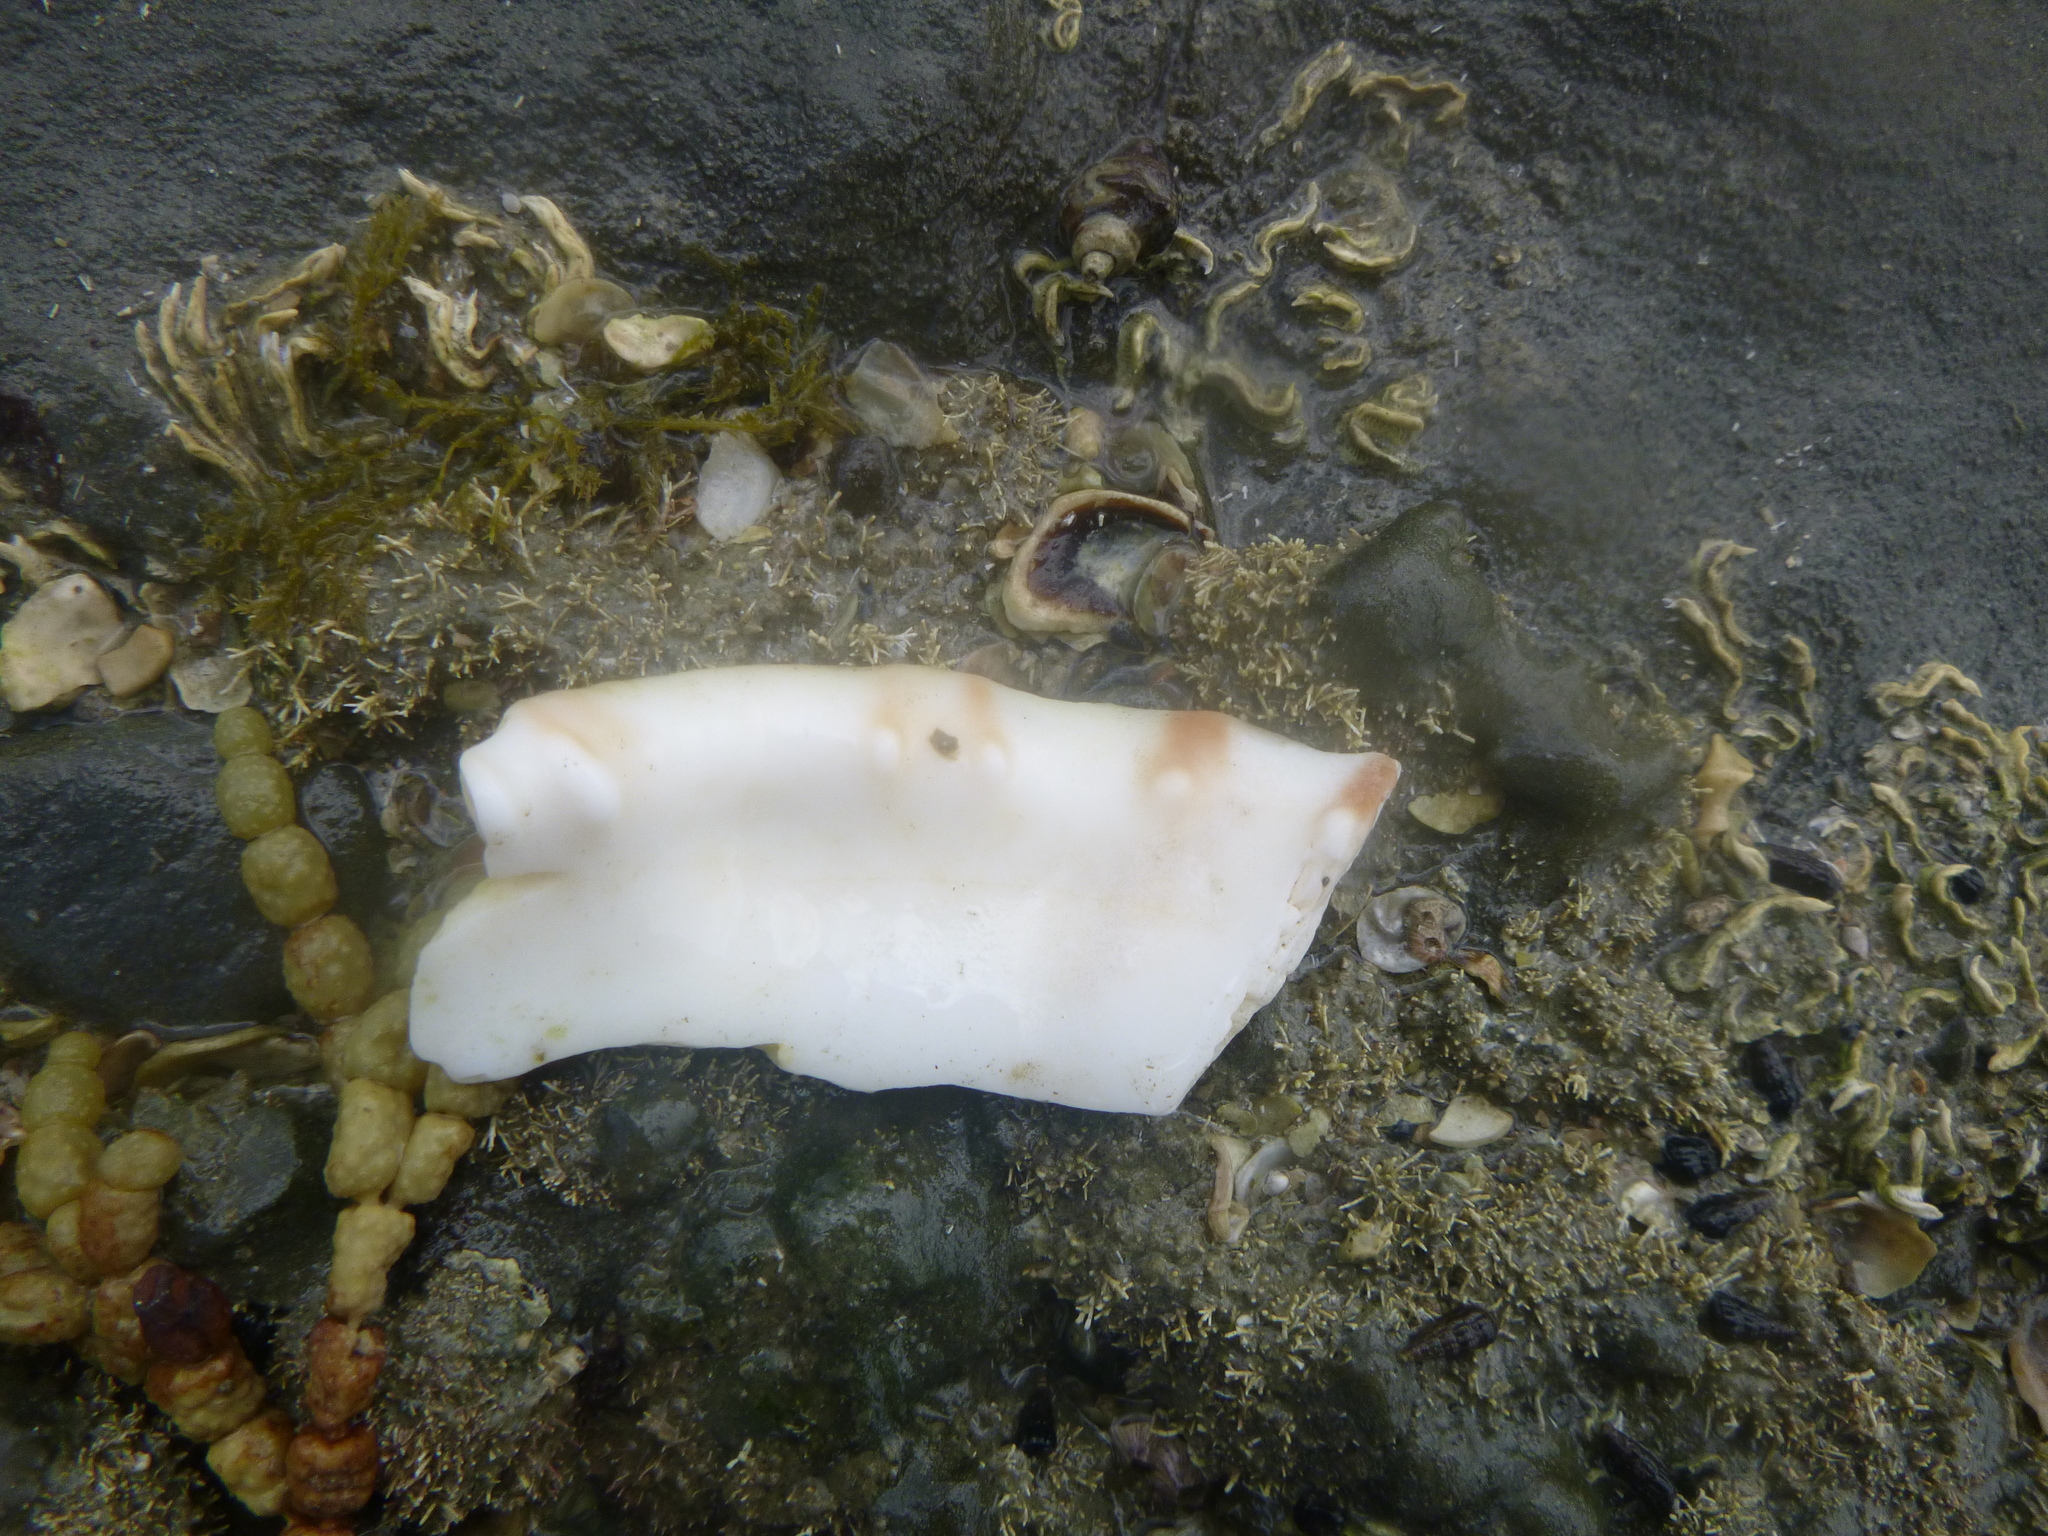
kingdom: Animalia
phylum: Mollusca
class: Gastropoda
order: Littorinimorpha
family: Charoniidae
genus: Charonia
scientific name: Charonia lampas
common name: Knobbed triton
